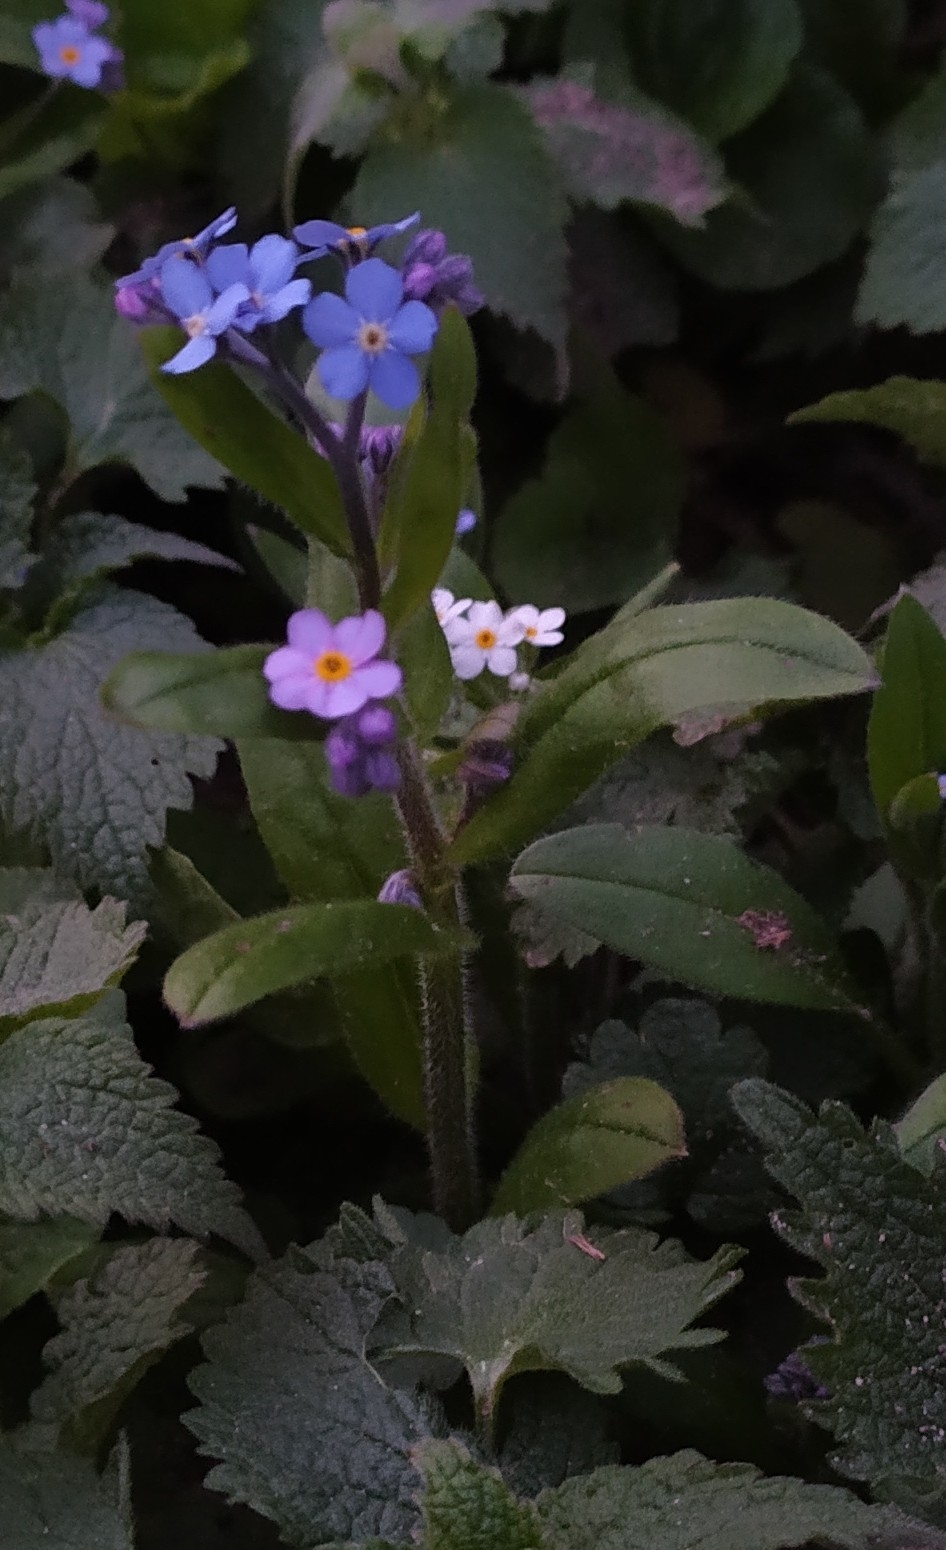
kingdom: Plantae
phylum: Tracheophyta
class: Magnoliopsida
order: Boraginales
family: Boraginaceae
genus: Myosotis
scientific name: Myosotis sylvatica
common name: Wood forget-me-not
